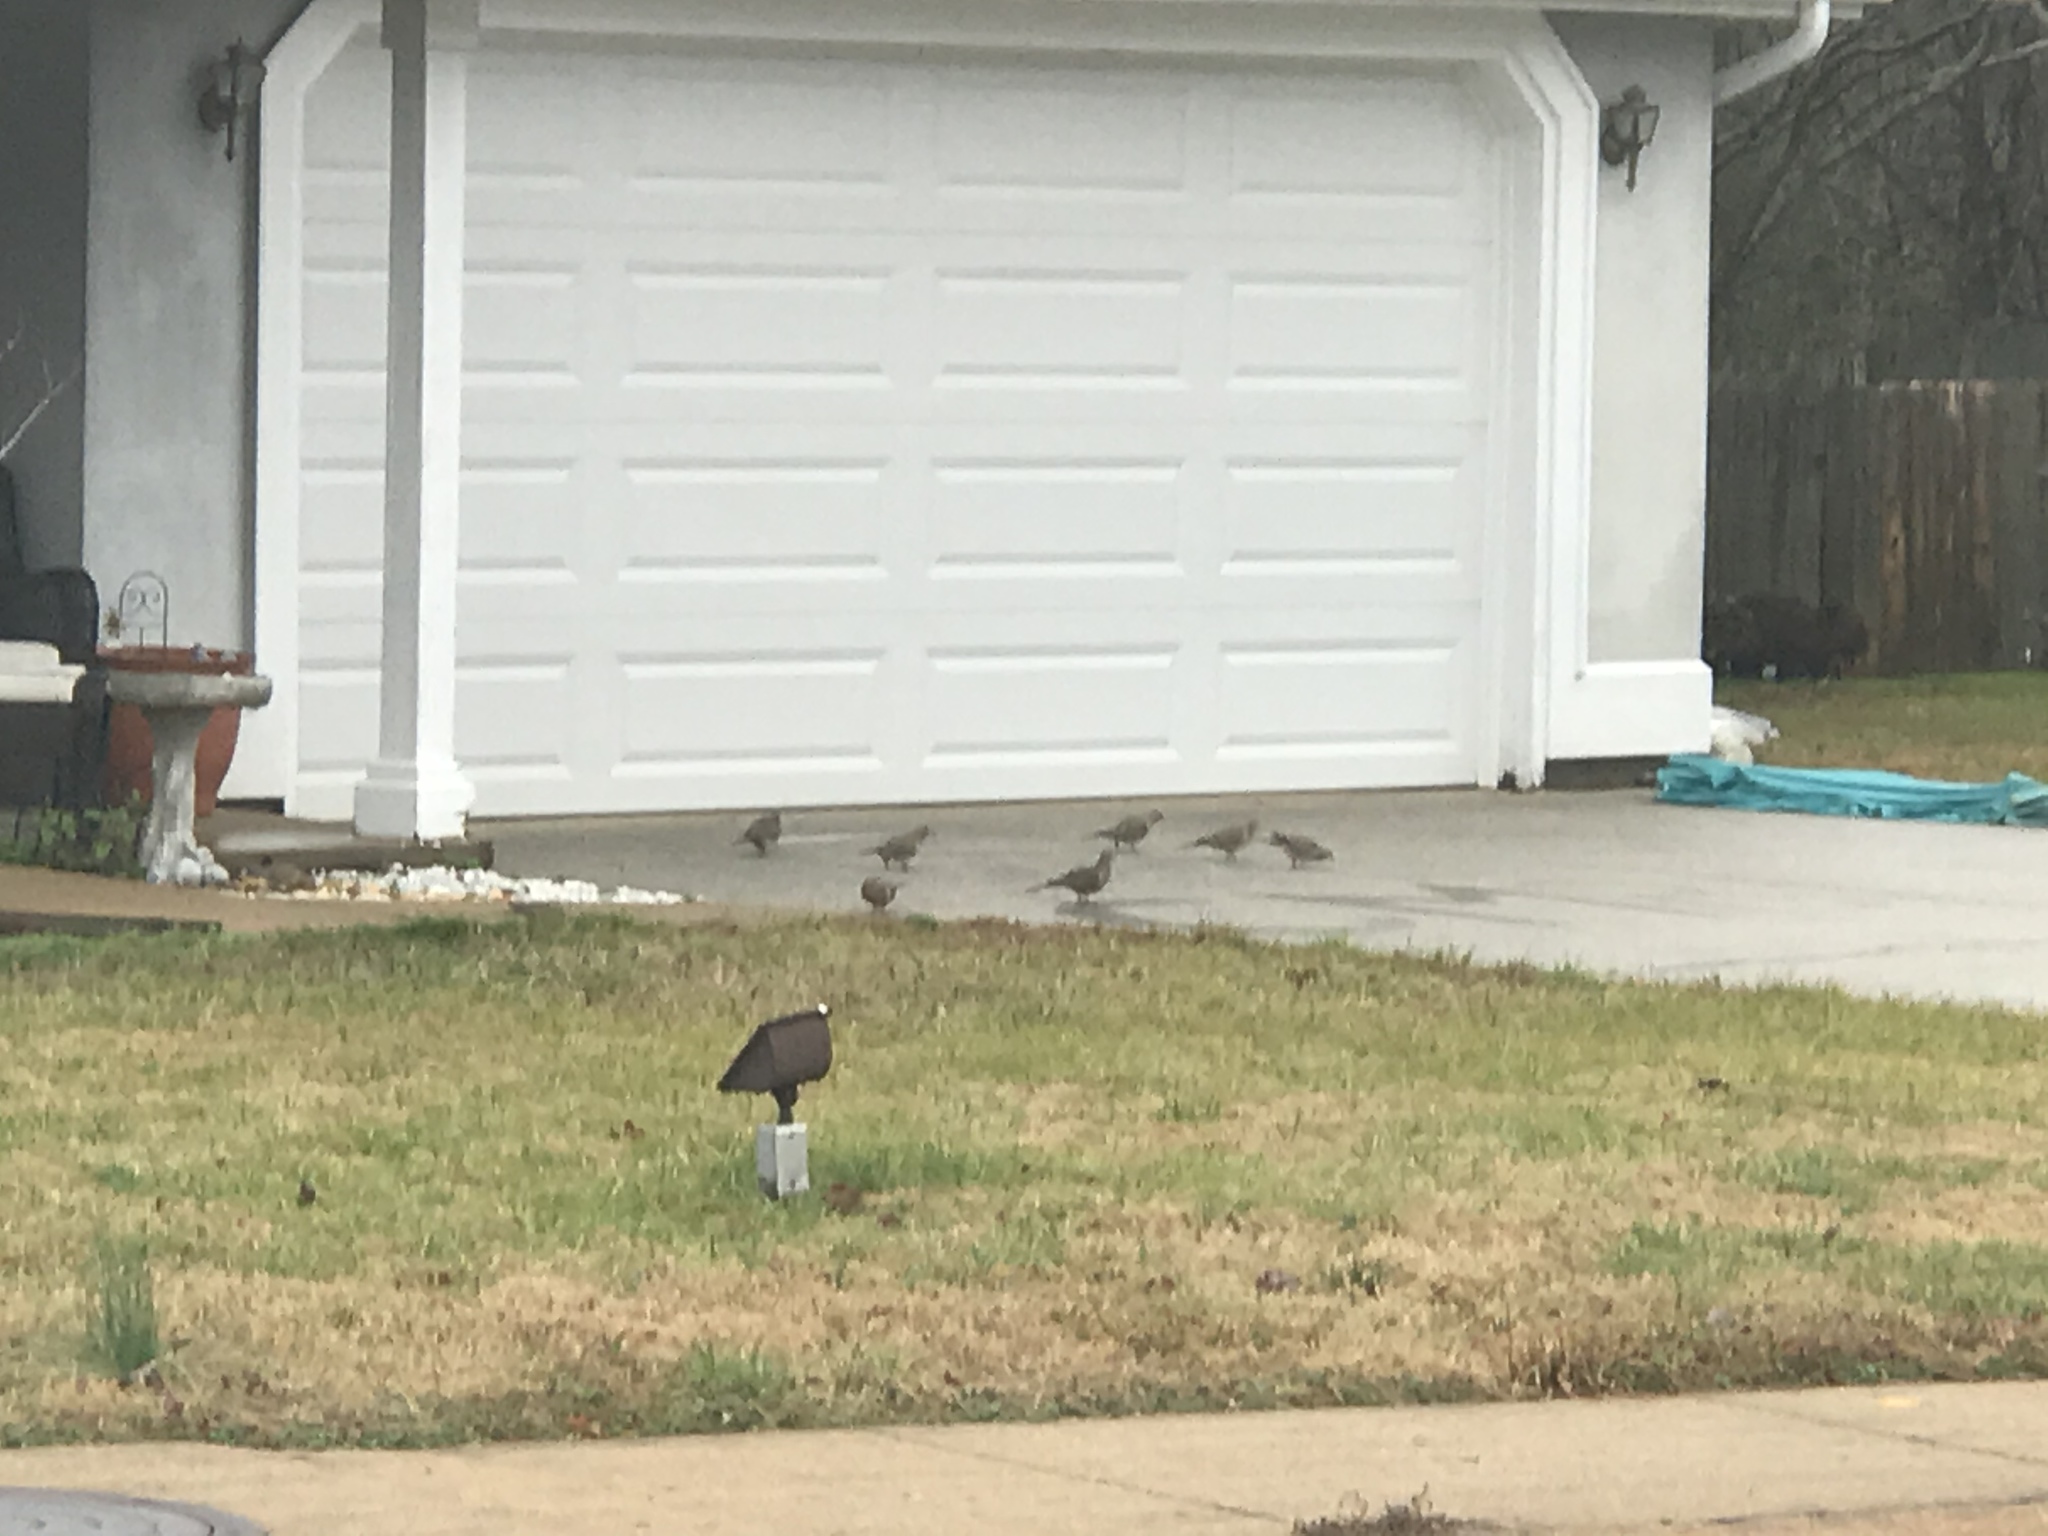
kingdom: Animalia
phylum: Chordata
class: Aves
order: Columbiformes
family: Columbidae
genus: Zenaida
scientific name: Zenaida macroura
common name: Mourning dove
